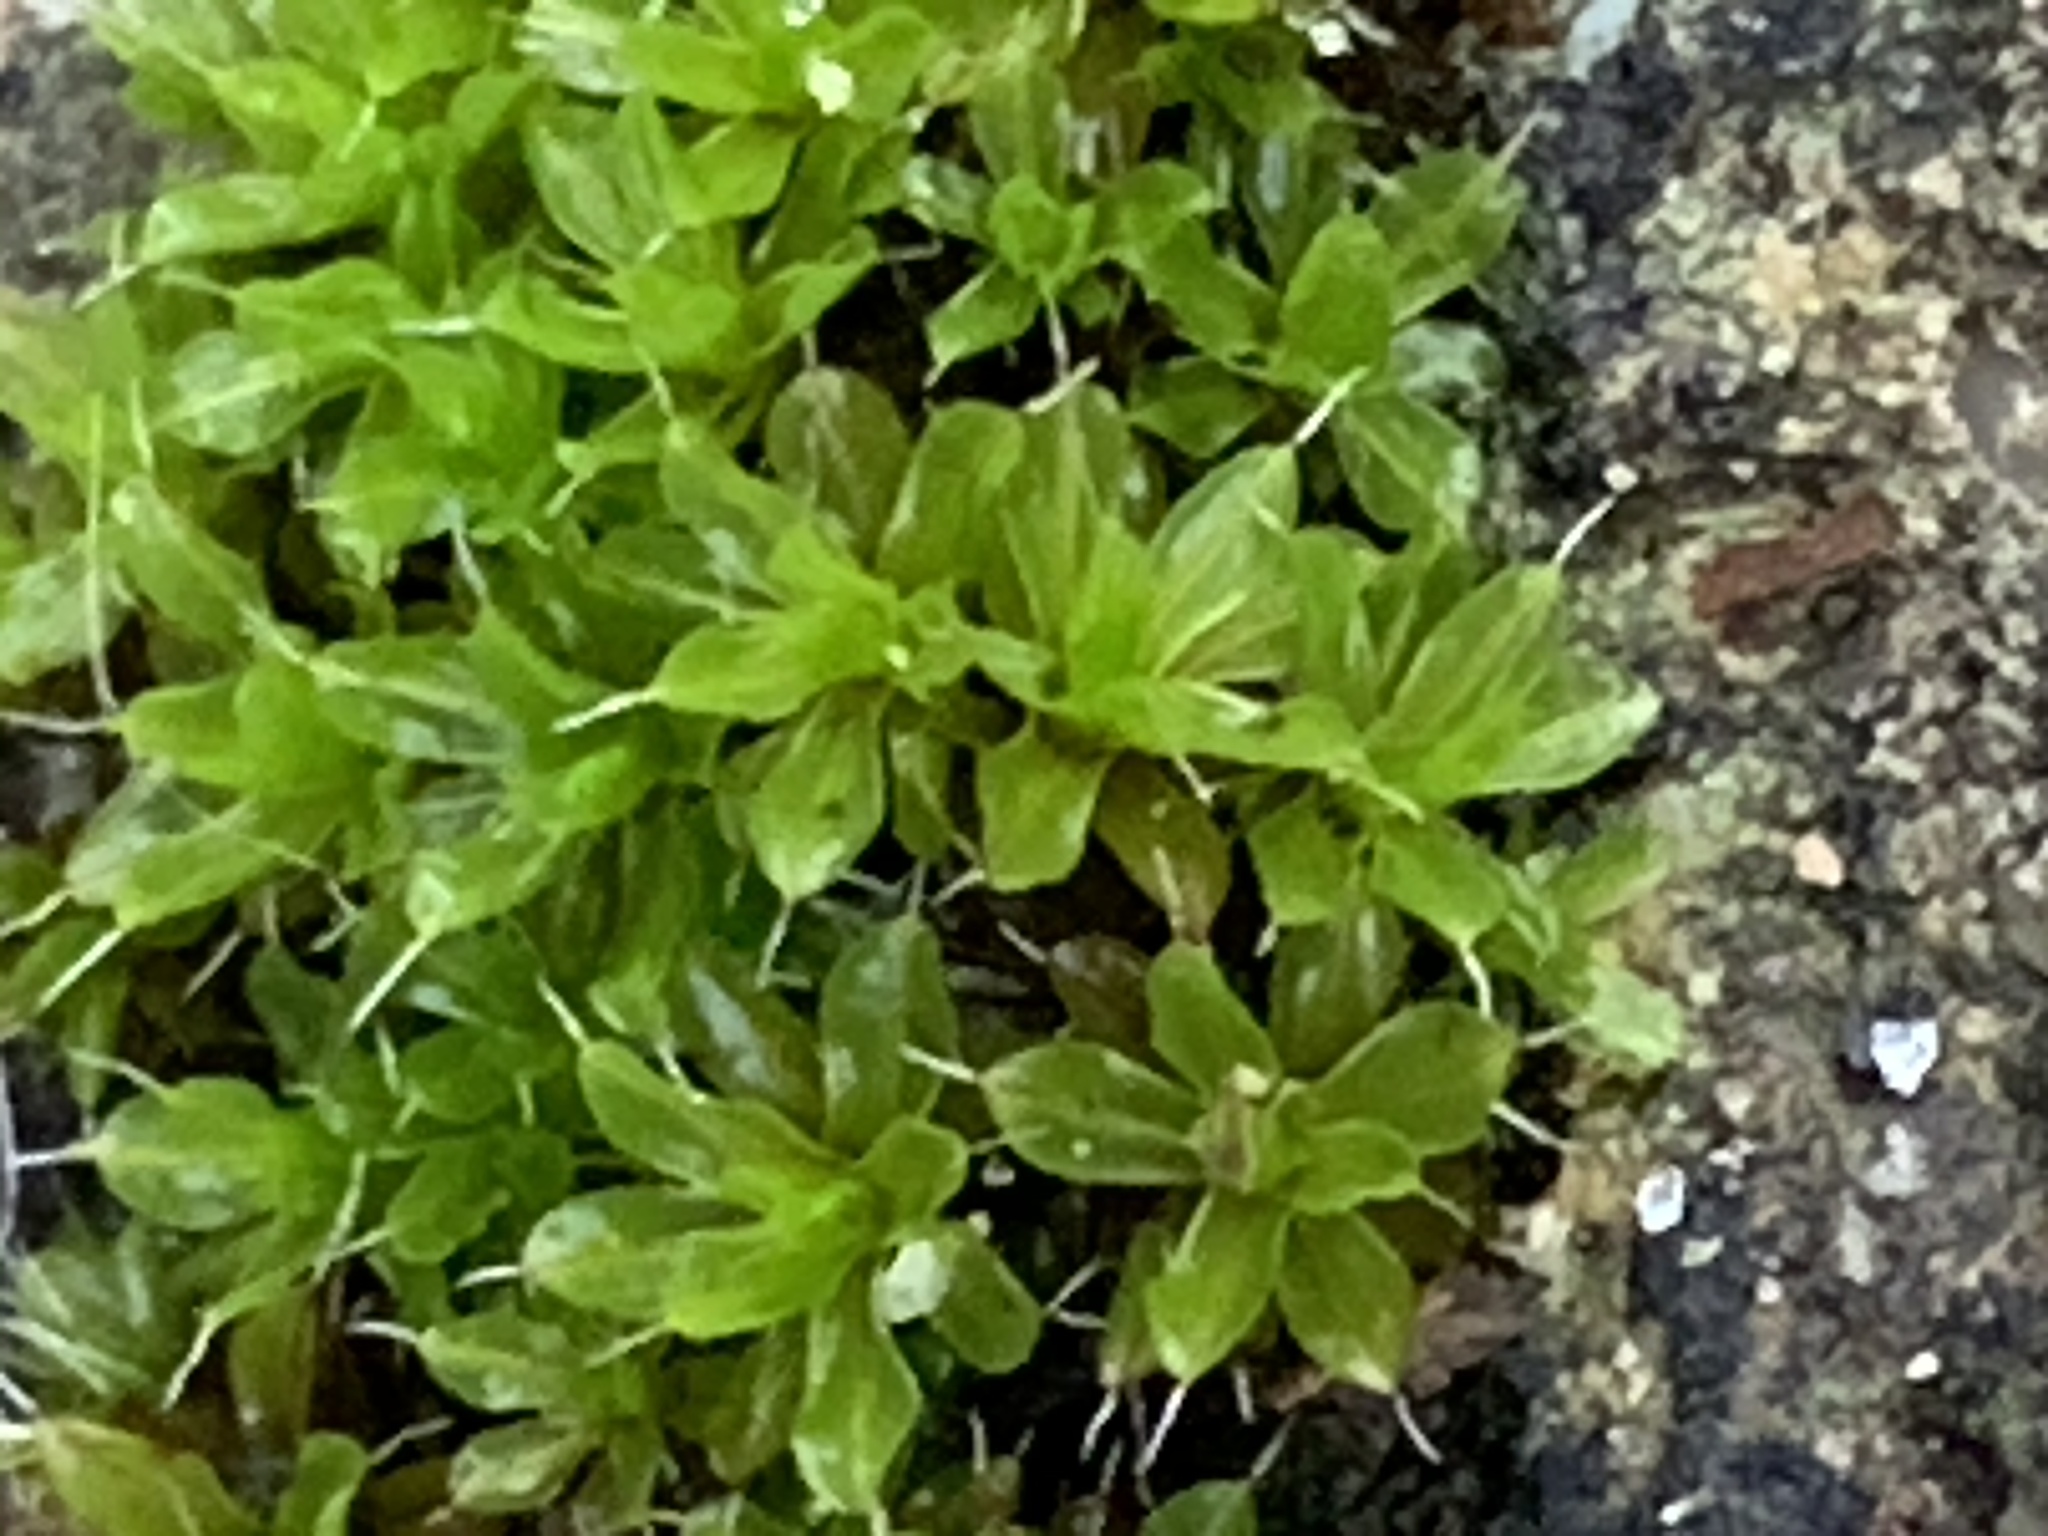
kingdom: Plantae
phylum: Bryophyta
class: Bryopsida
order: Pottiales
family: Pottiaceae
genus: Syntrichia
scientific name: Syntrichia montana
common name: Intermediate screw-moss
